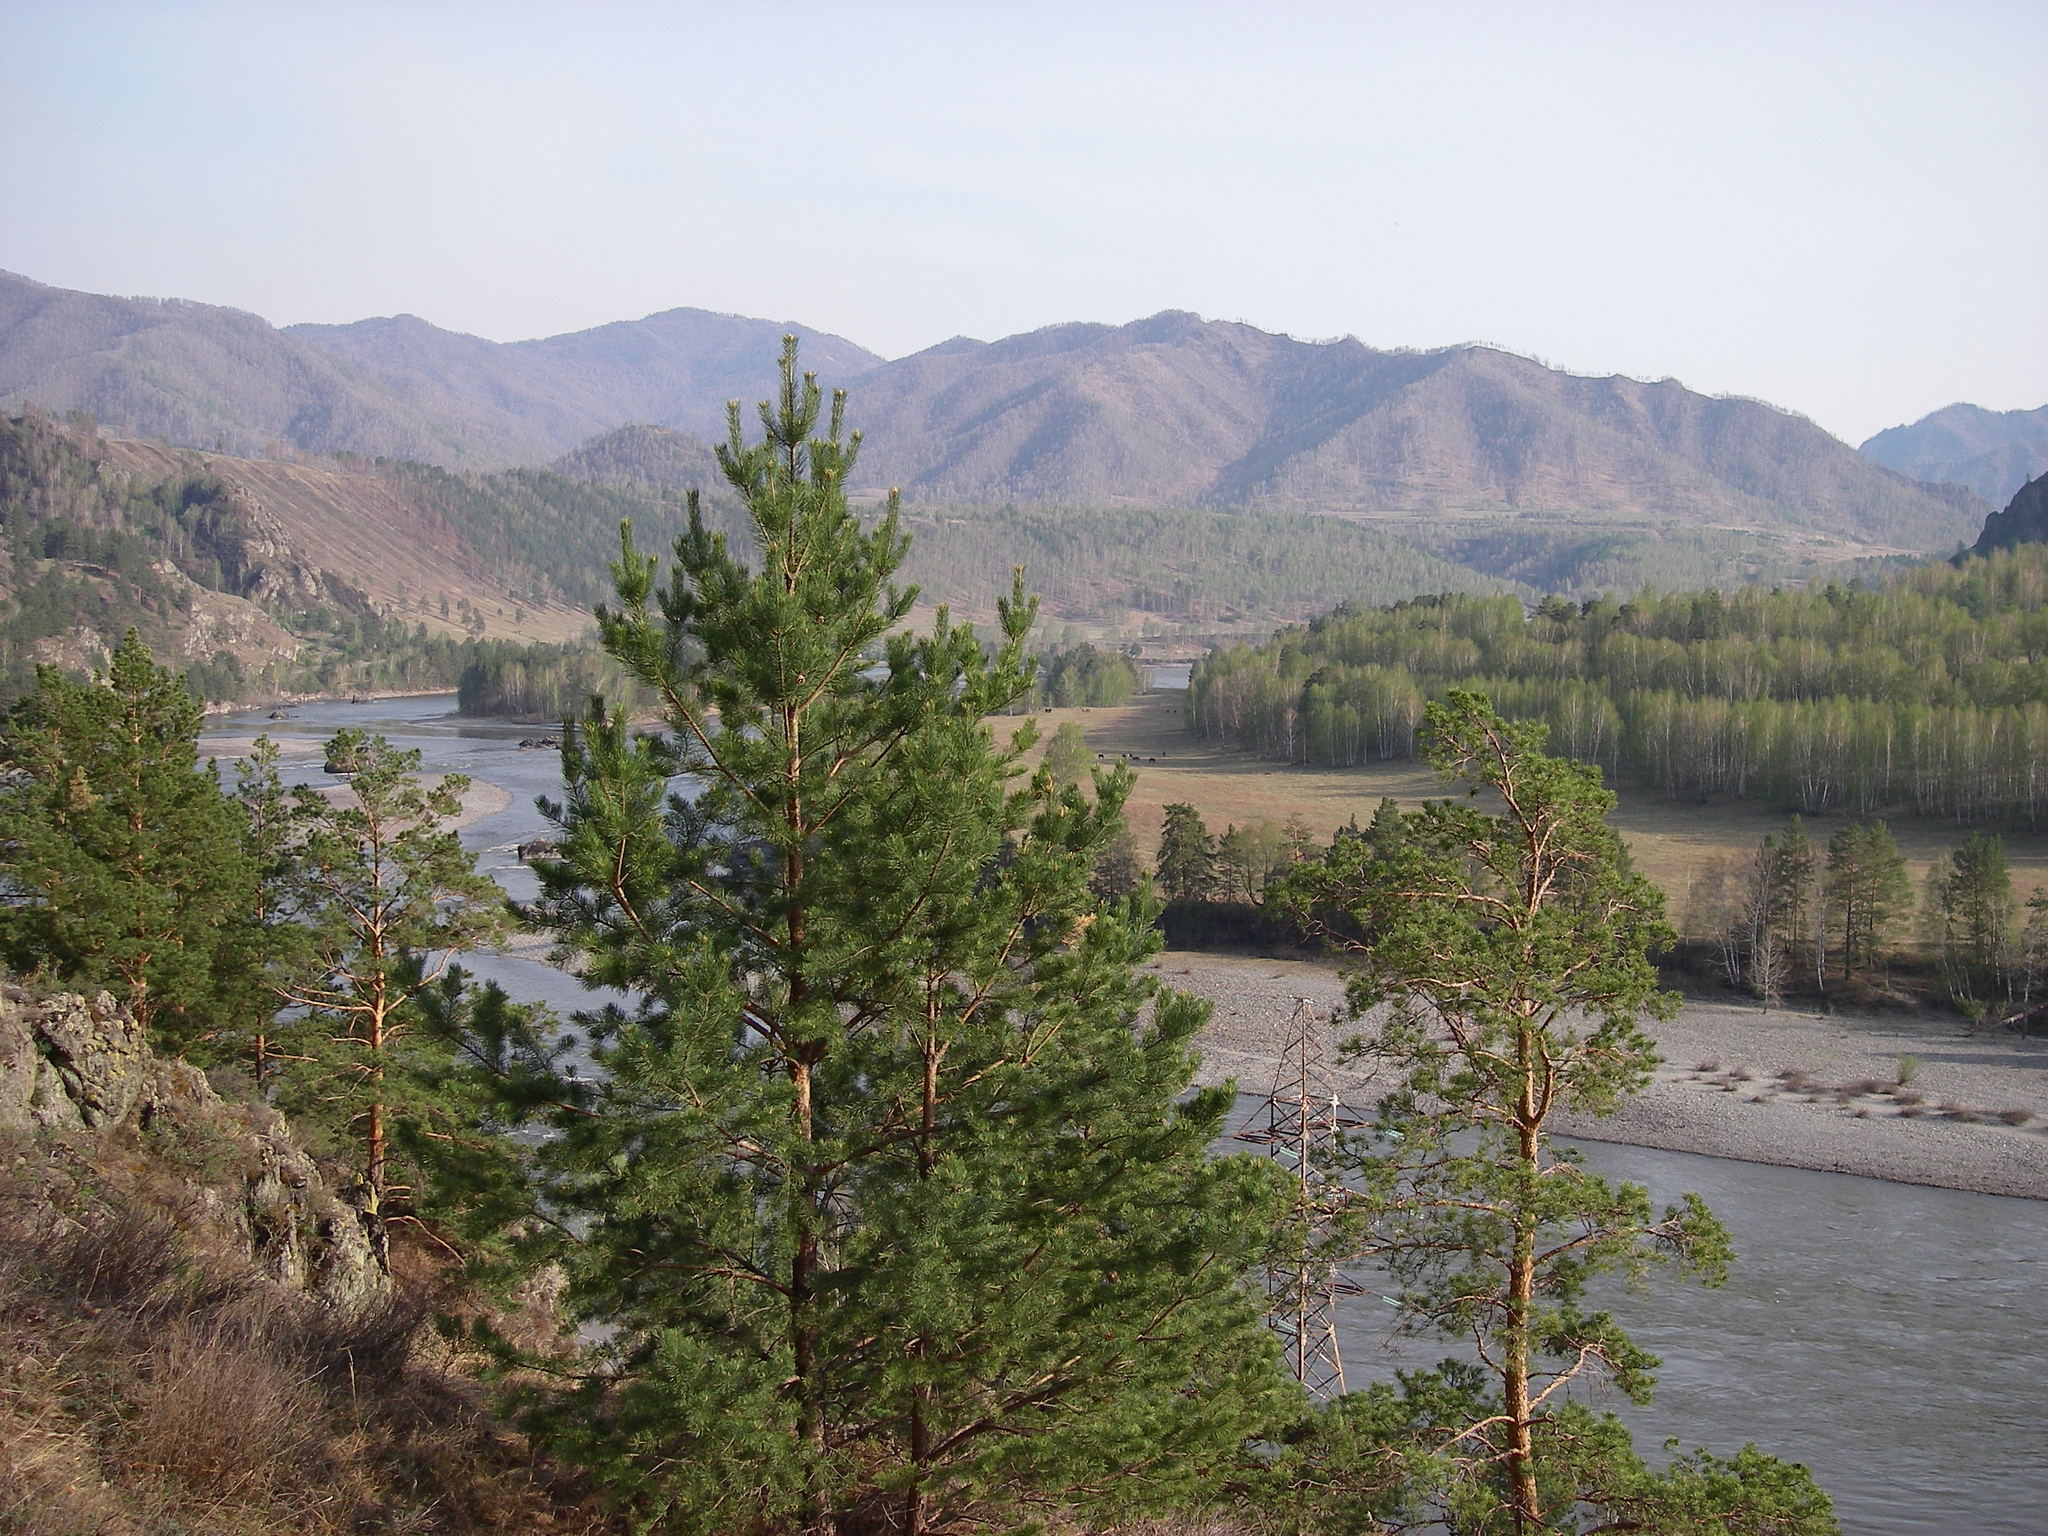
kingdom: Plantae
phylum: Tracheophyta
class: Pinopsida
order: Pinales
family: Pinaceae
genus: Pinus
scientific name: Pinus sylvestris
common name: Scots pine
